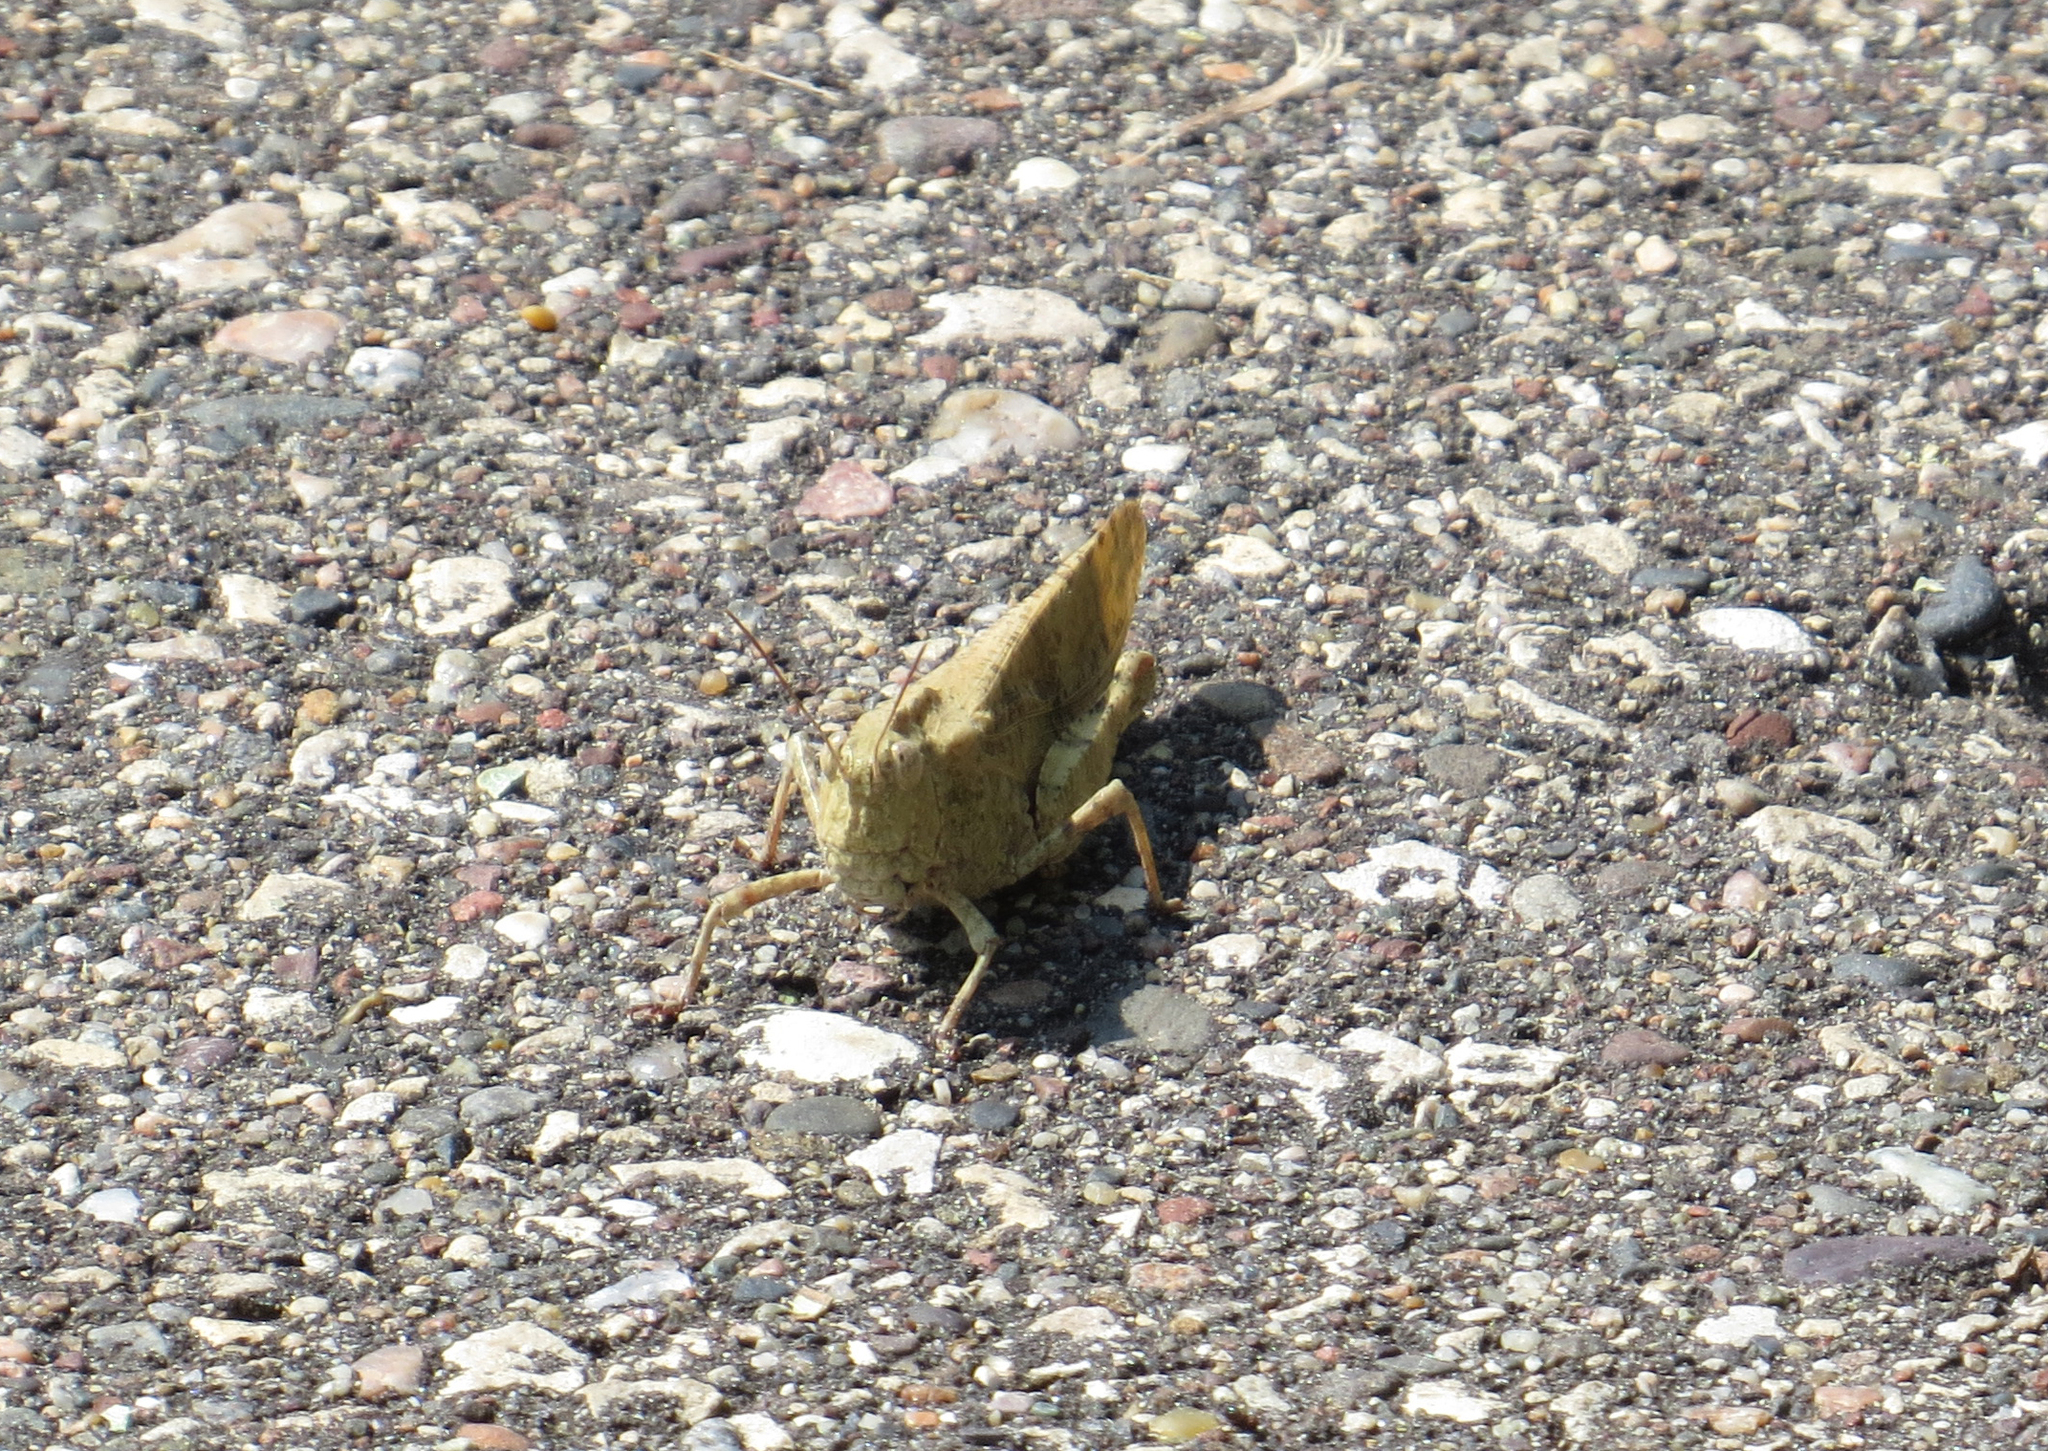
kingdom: Animalia
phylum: Arthropoda
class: Insecta
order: Orthoptera
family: Acrididae
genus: Dissosteira
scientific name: Dissosteira carolina
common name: Carolina grasshopper
